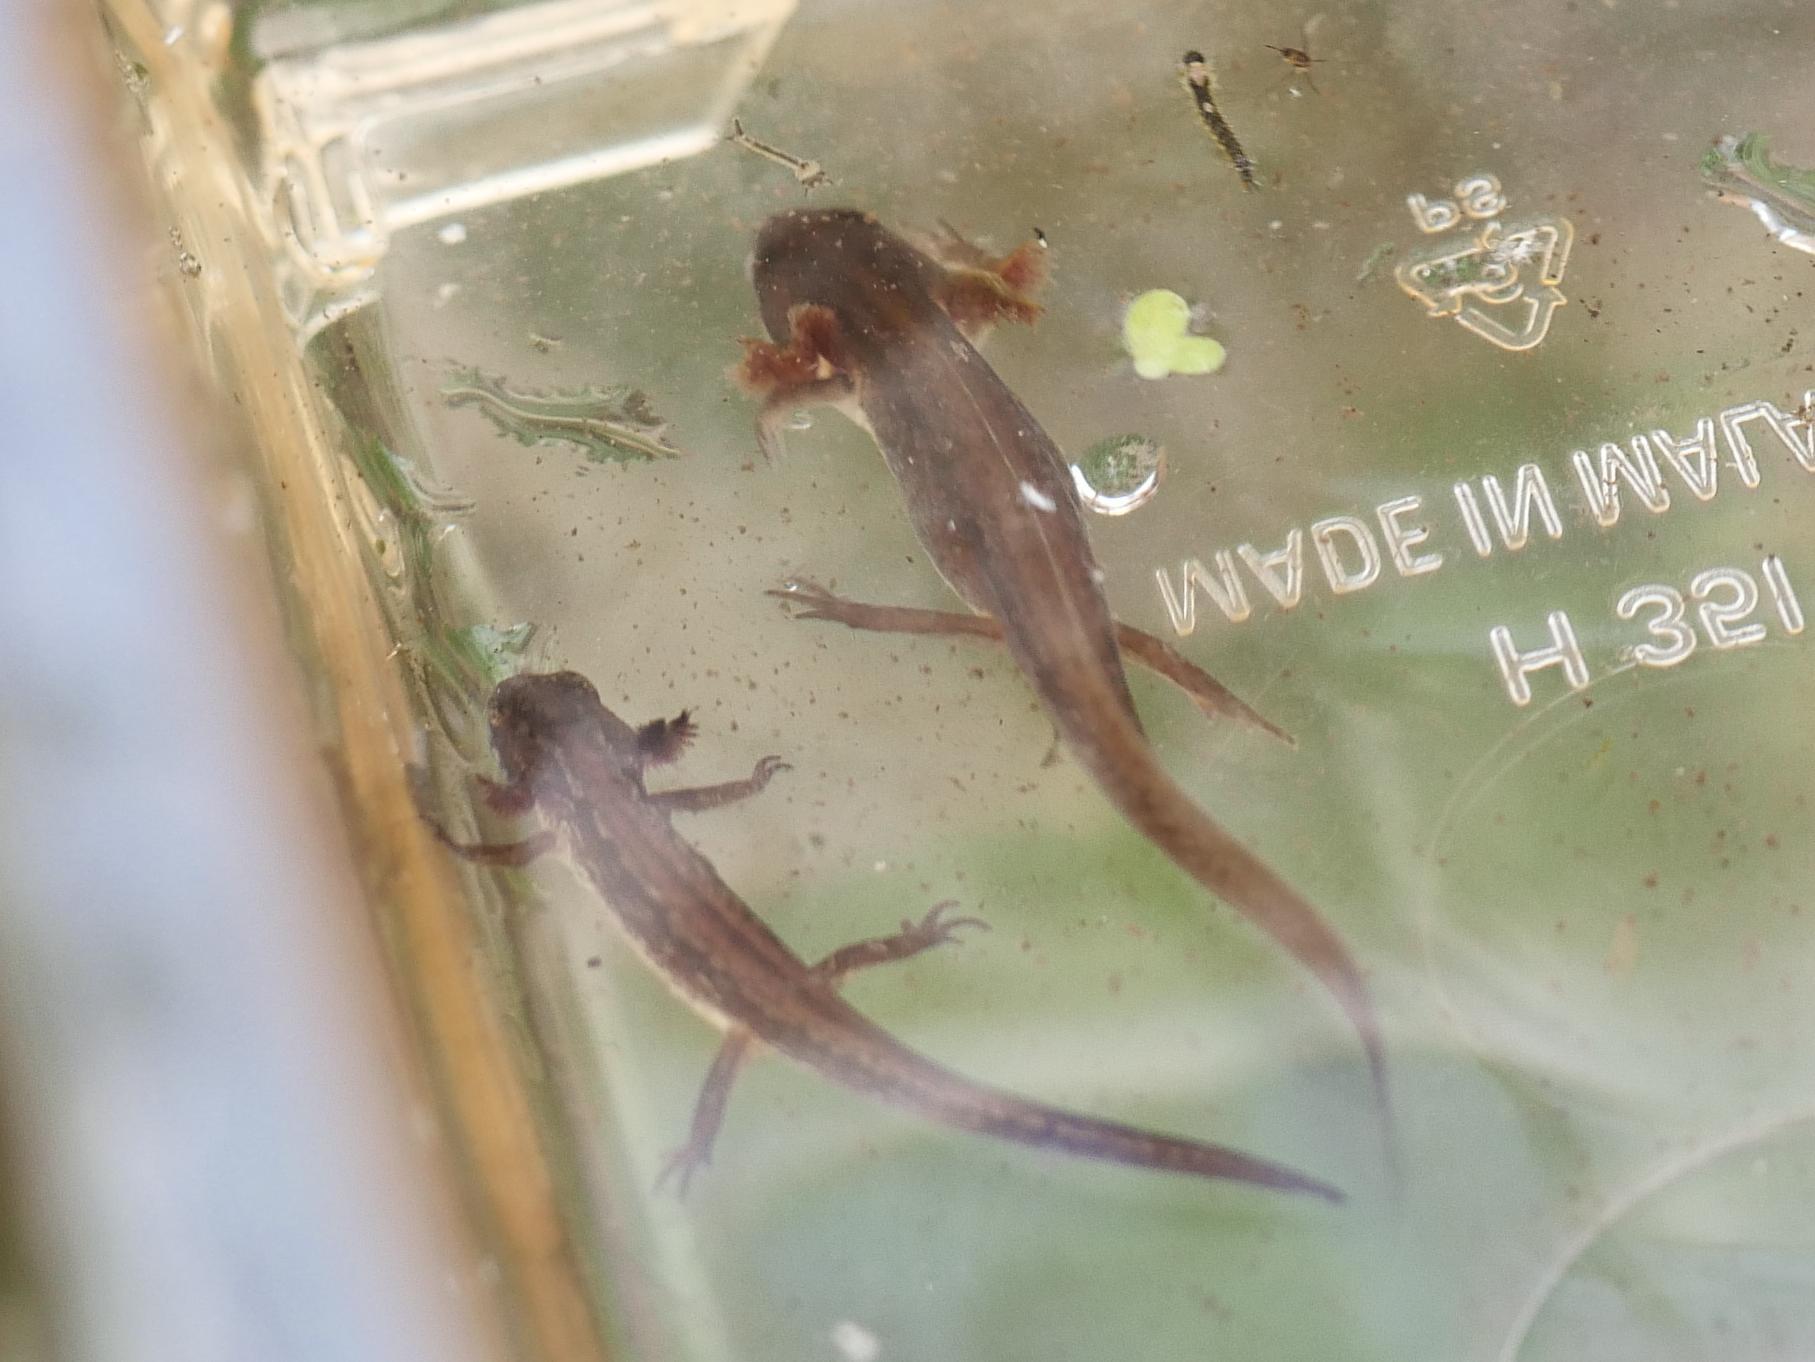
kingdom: Animalia
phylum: Chordata
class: Amphibia
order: Caudata
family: Salamandridae
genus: Lissotriton
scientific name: Lissotriton vulgaris
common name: Smooth newt
